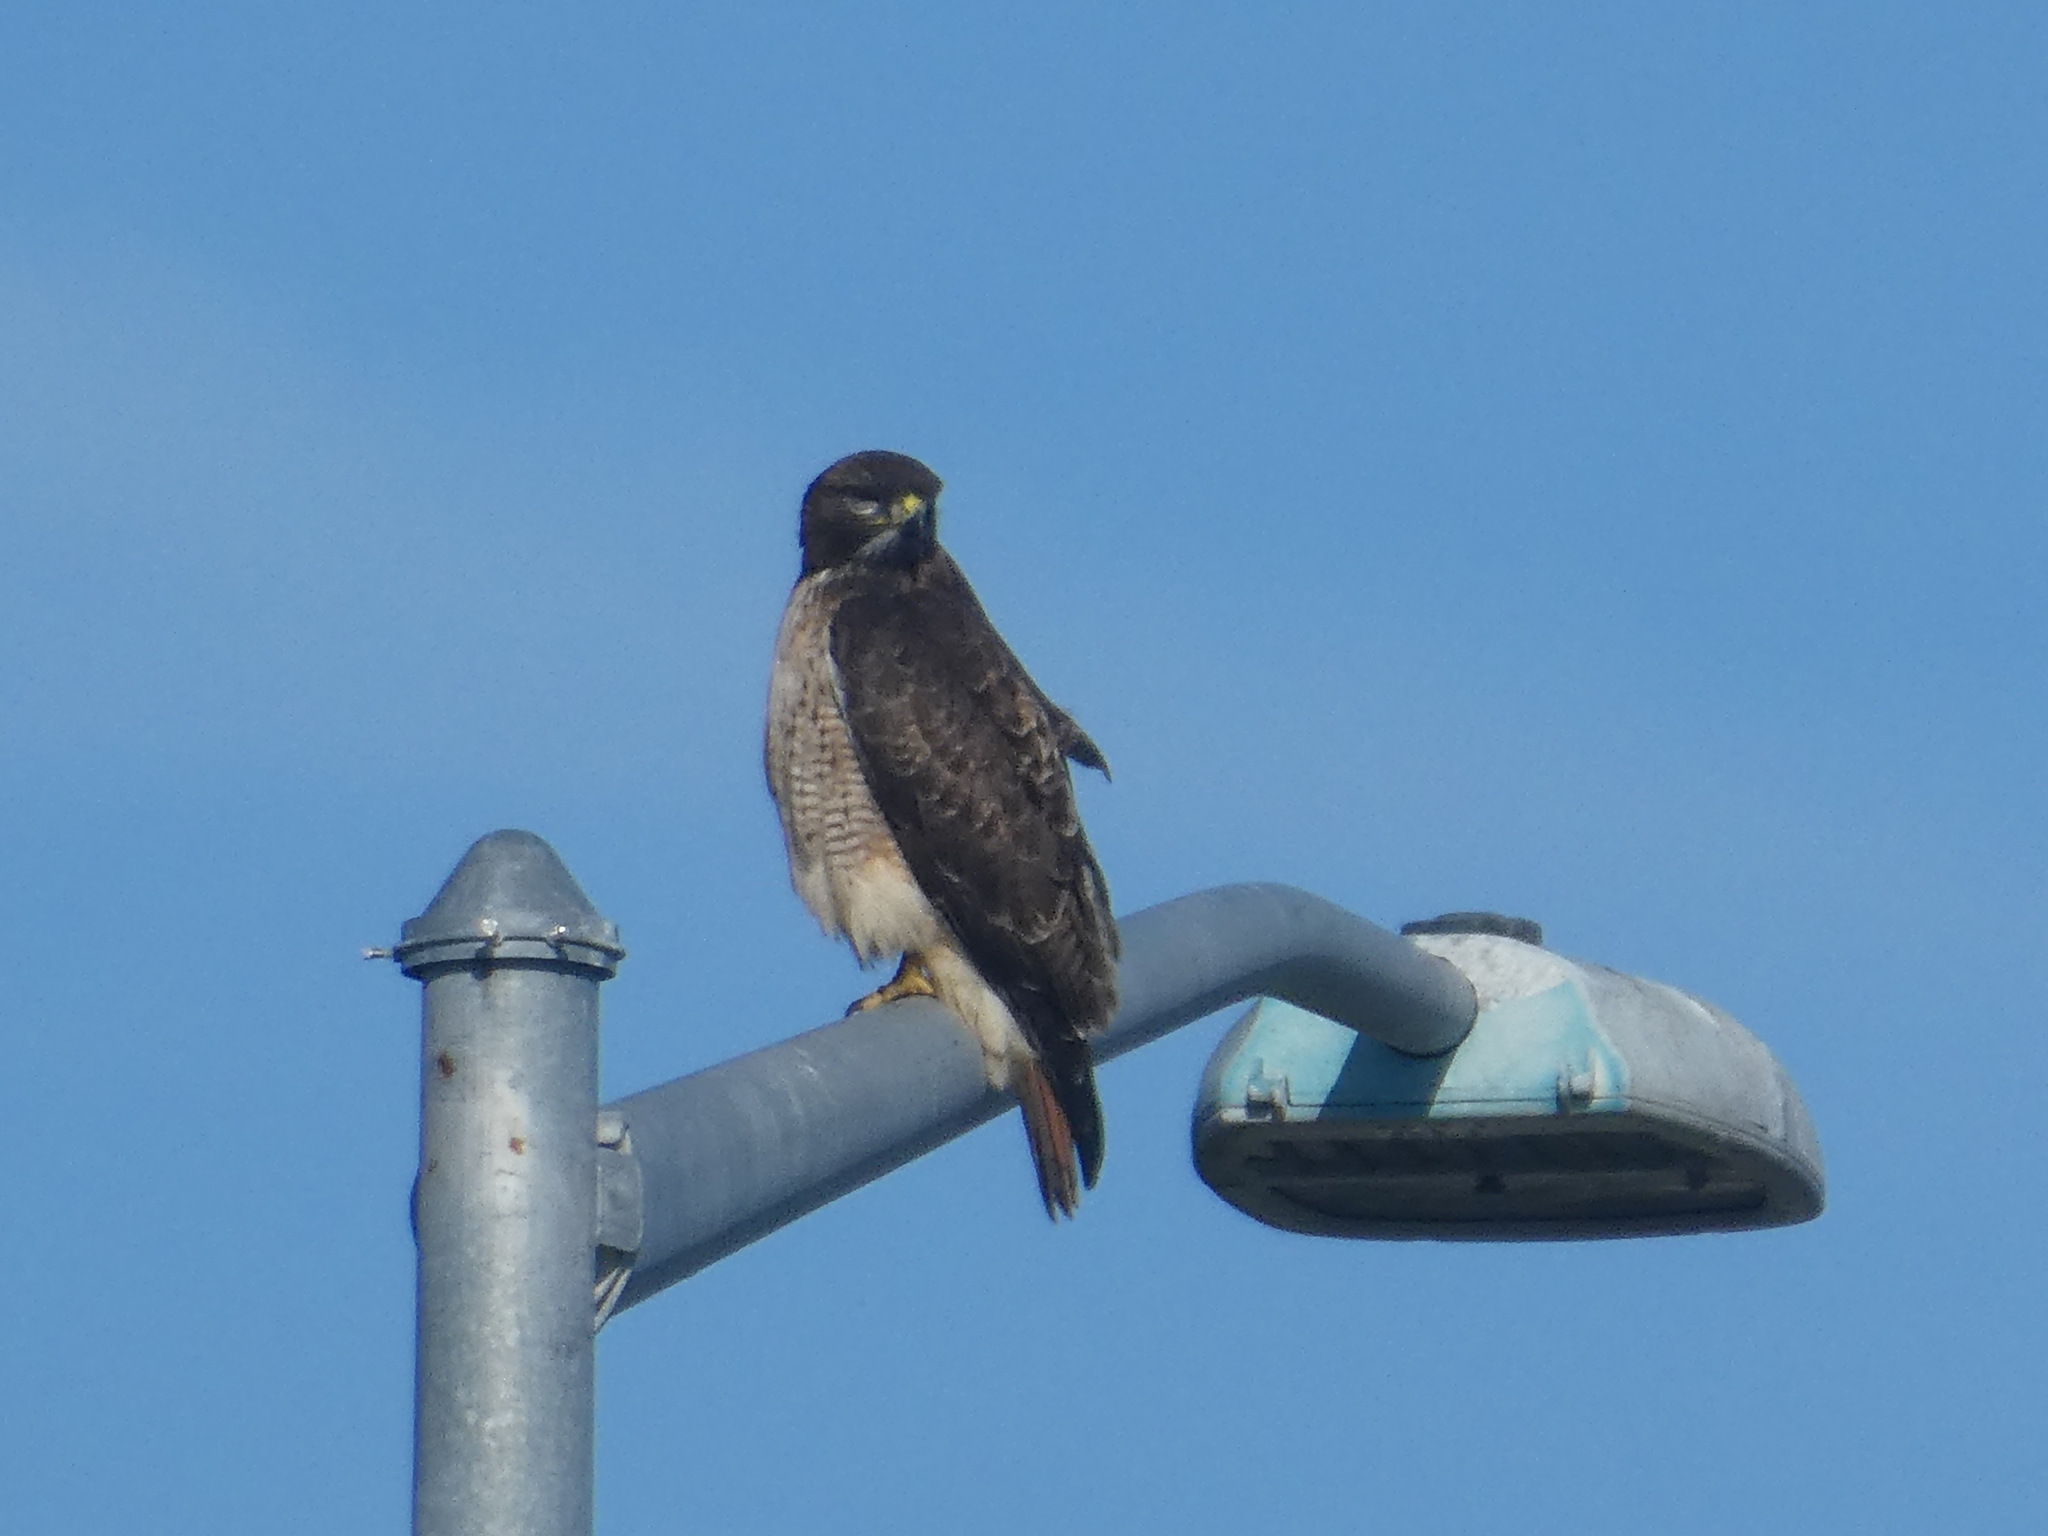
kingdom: Animalia
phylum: Chordata
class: Aves
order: Accipitriformes
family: Accipitridae
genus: Buteo
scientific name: Buteo jamaicensis
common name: Red-tailed hawk
